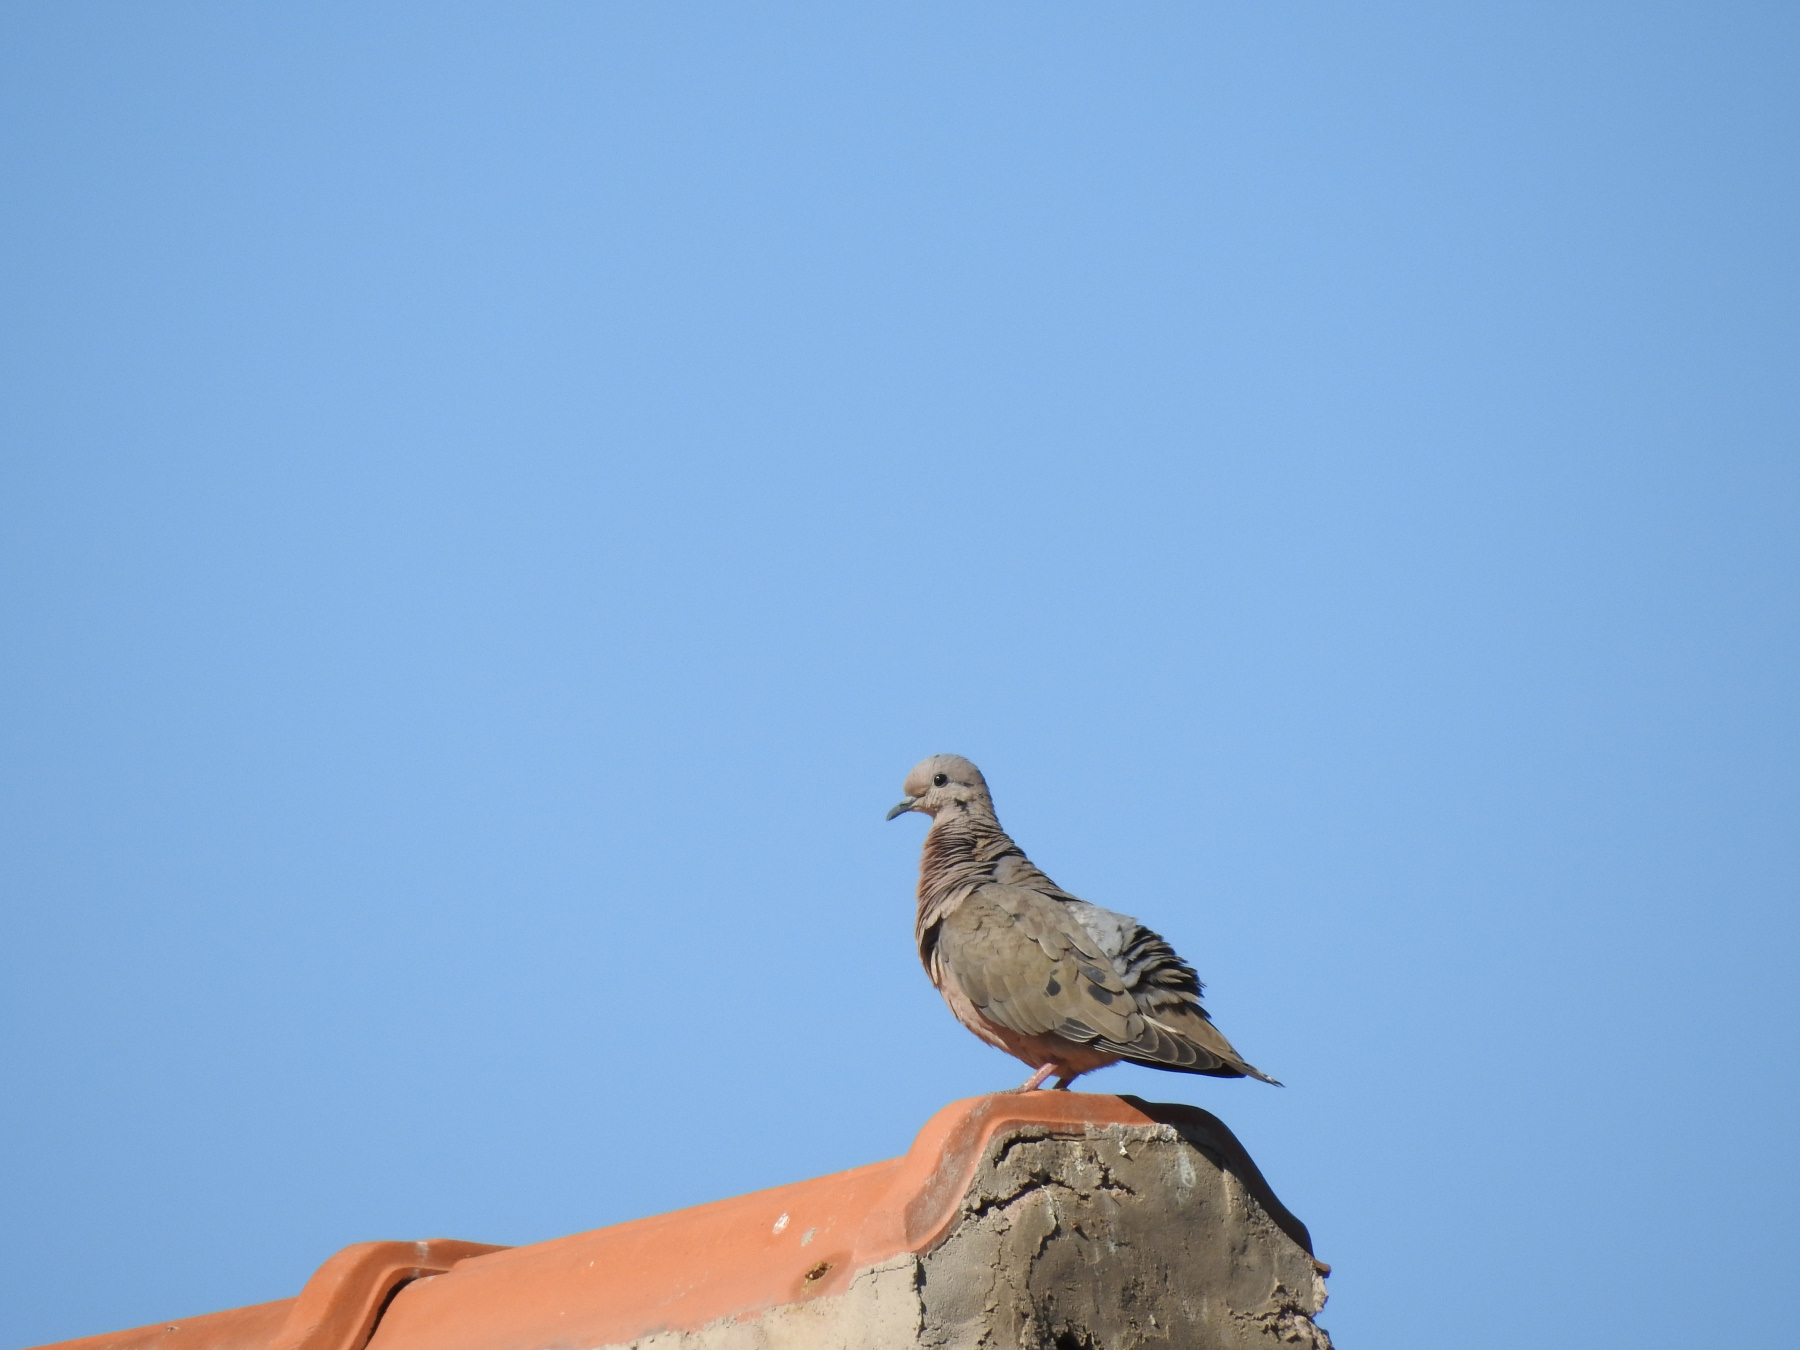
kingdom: Animalia
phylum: Chordata
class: Aves
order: Columbiformes
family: Columbidae
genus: Zenaida
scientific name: Zenaida auriculata
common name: Eared dove
